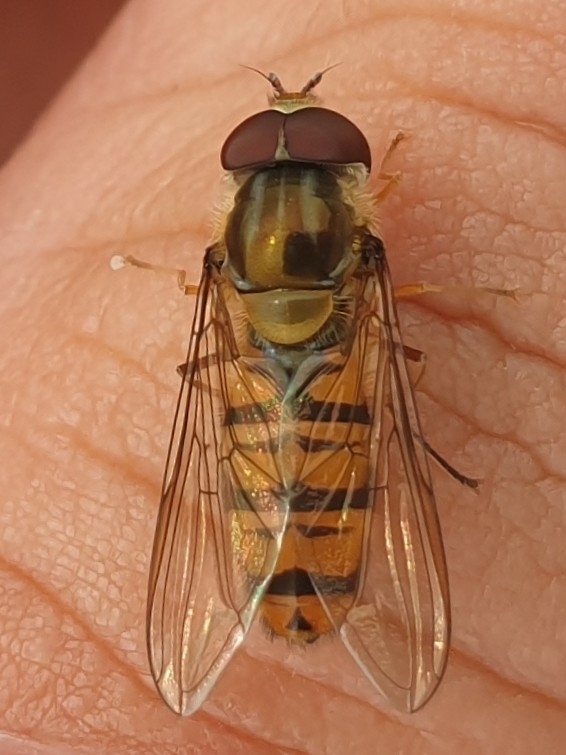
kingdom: Animalia
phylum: Arthropoda
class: Insecta
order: Diptera
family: Syrphidae
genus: Episyrphus
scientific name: Episyrphus balteatus
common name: Marmalade hoverfly
